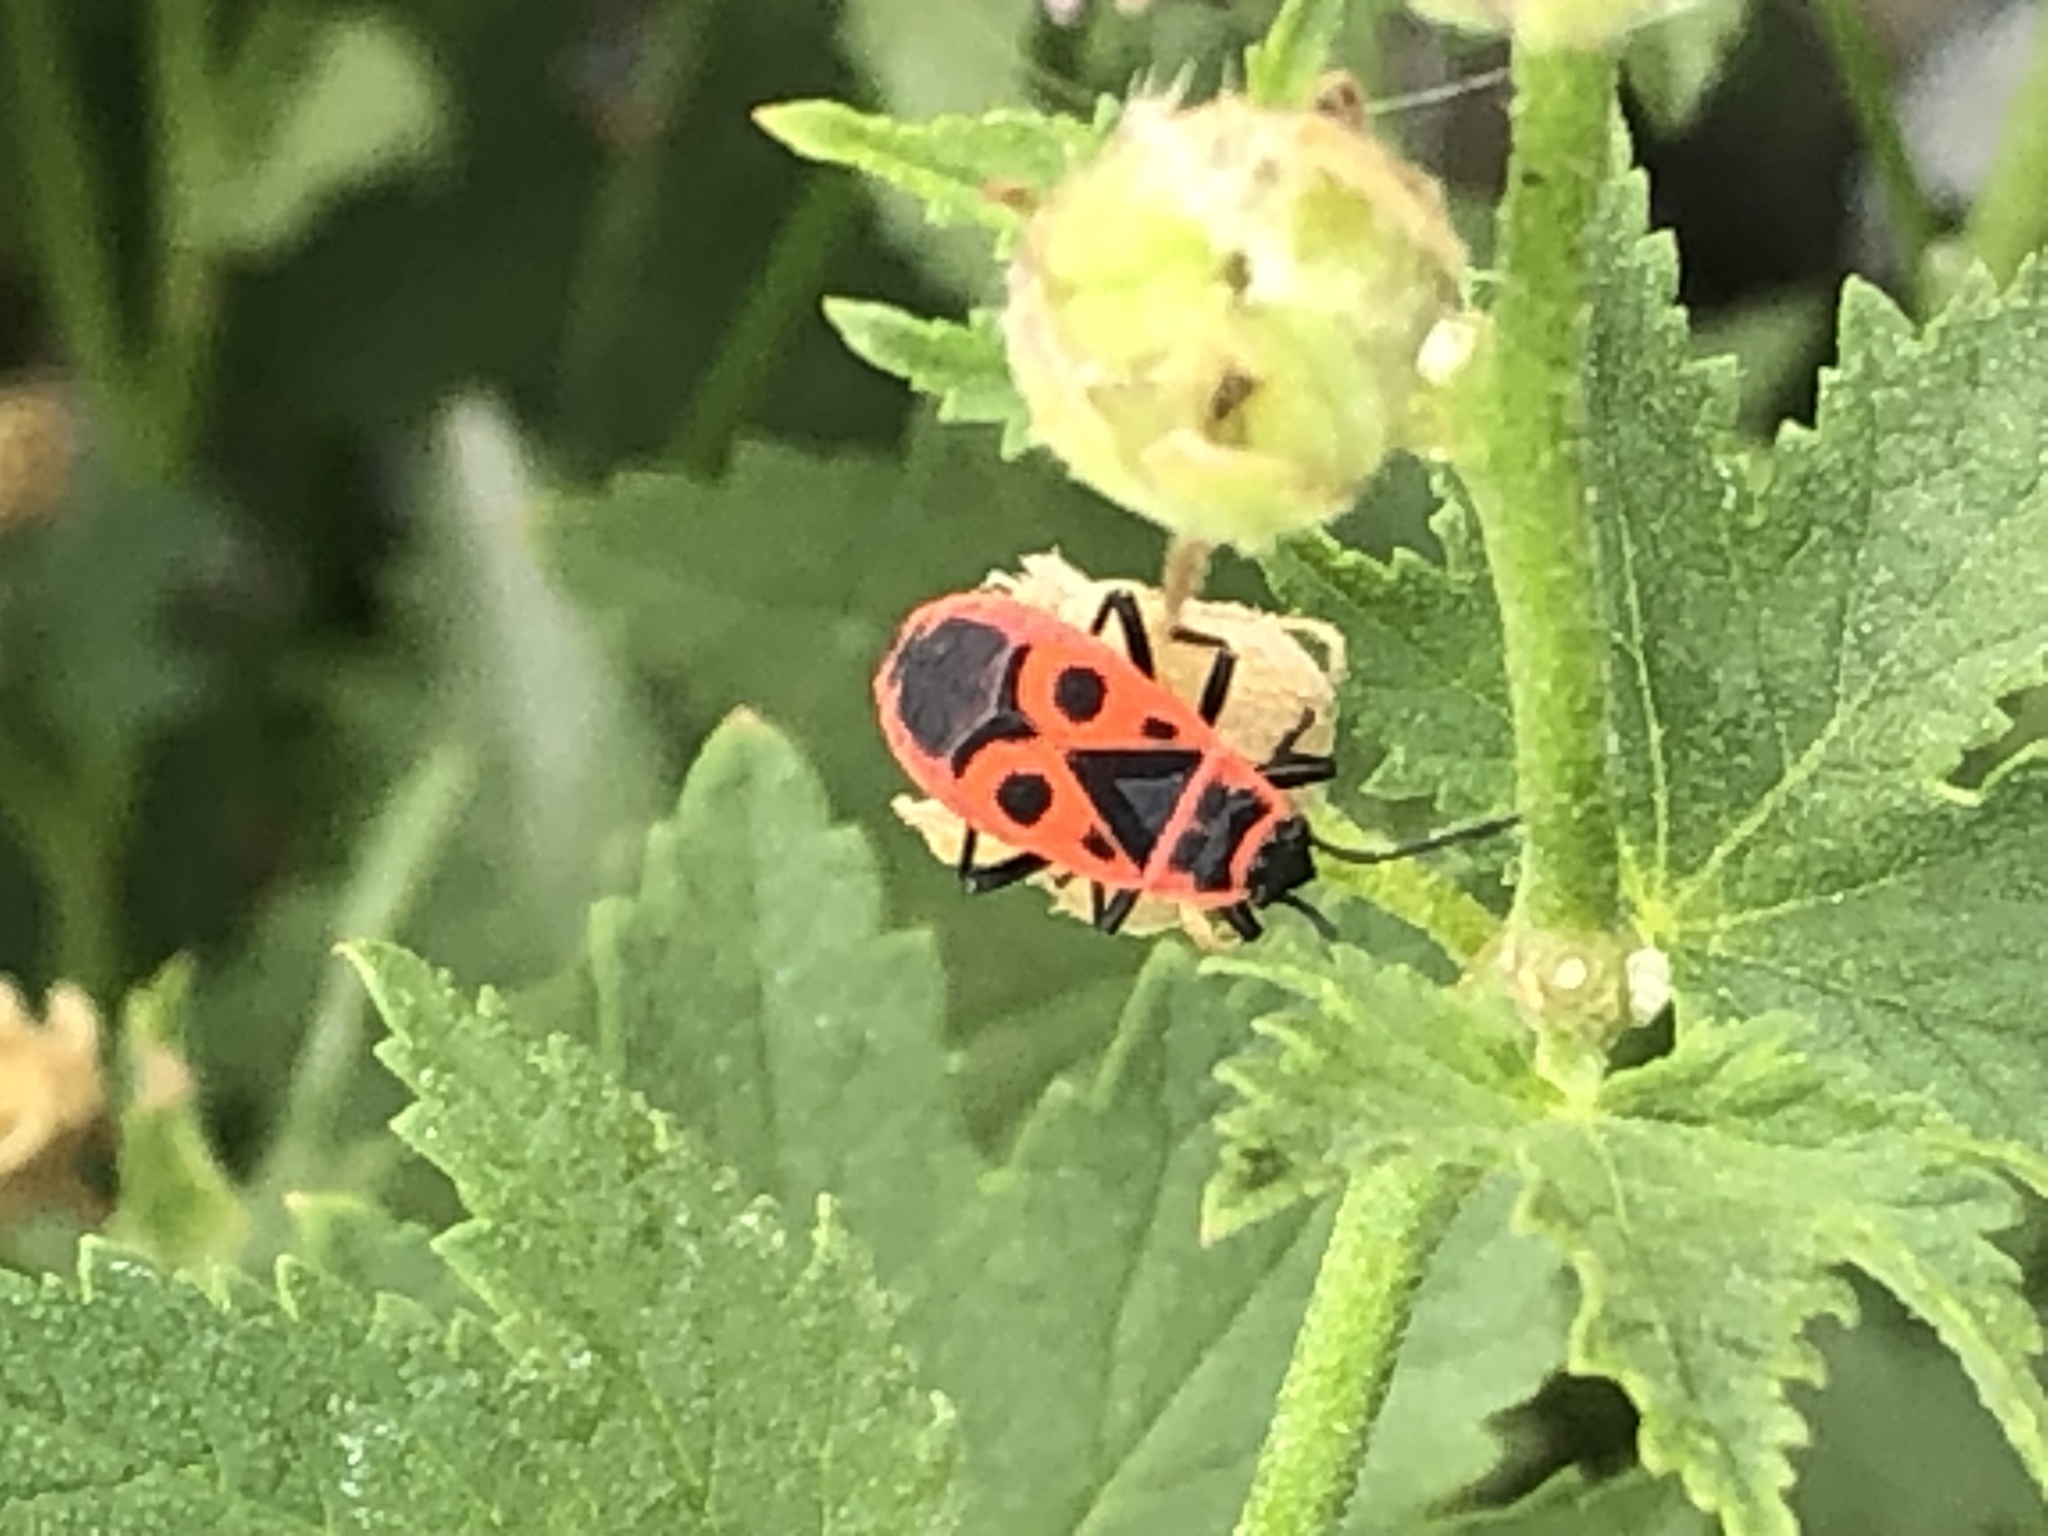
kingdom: Animalia
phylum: Arthropoda
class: Insecta
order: Hemiptera
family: Pyrrhocoridae
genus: Pyrrhocoris
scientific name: Pyrrhocoris apterus
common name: Firebug
